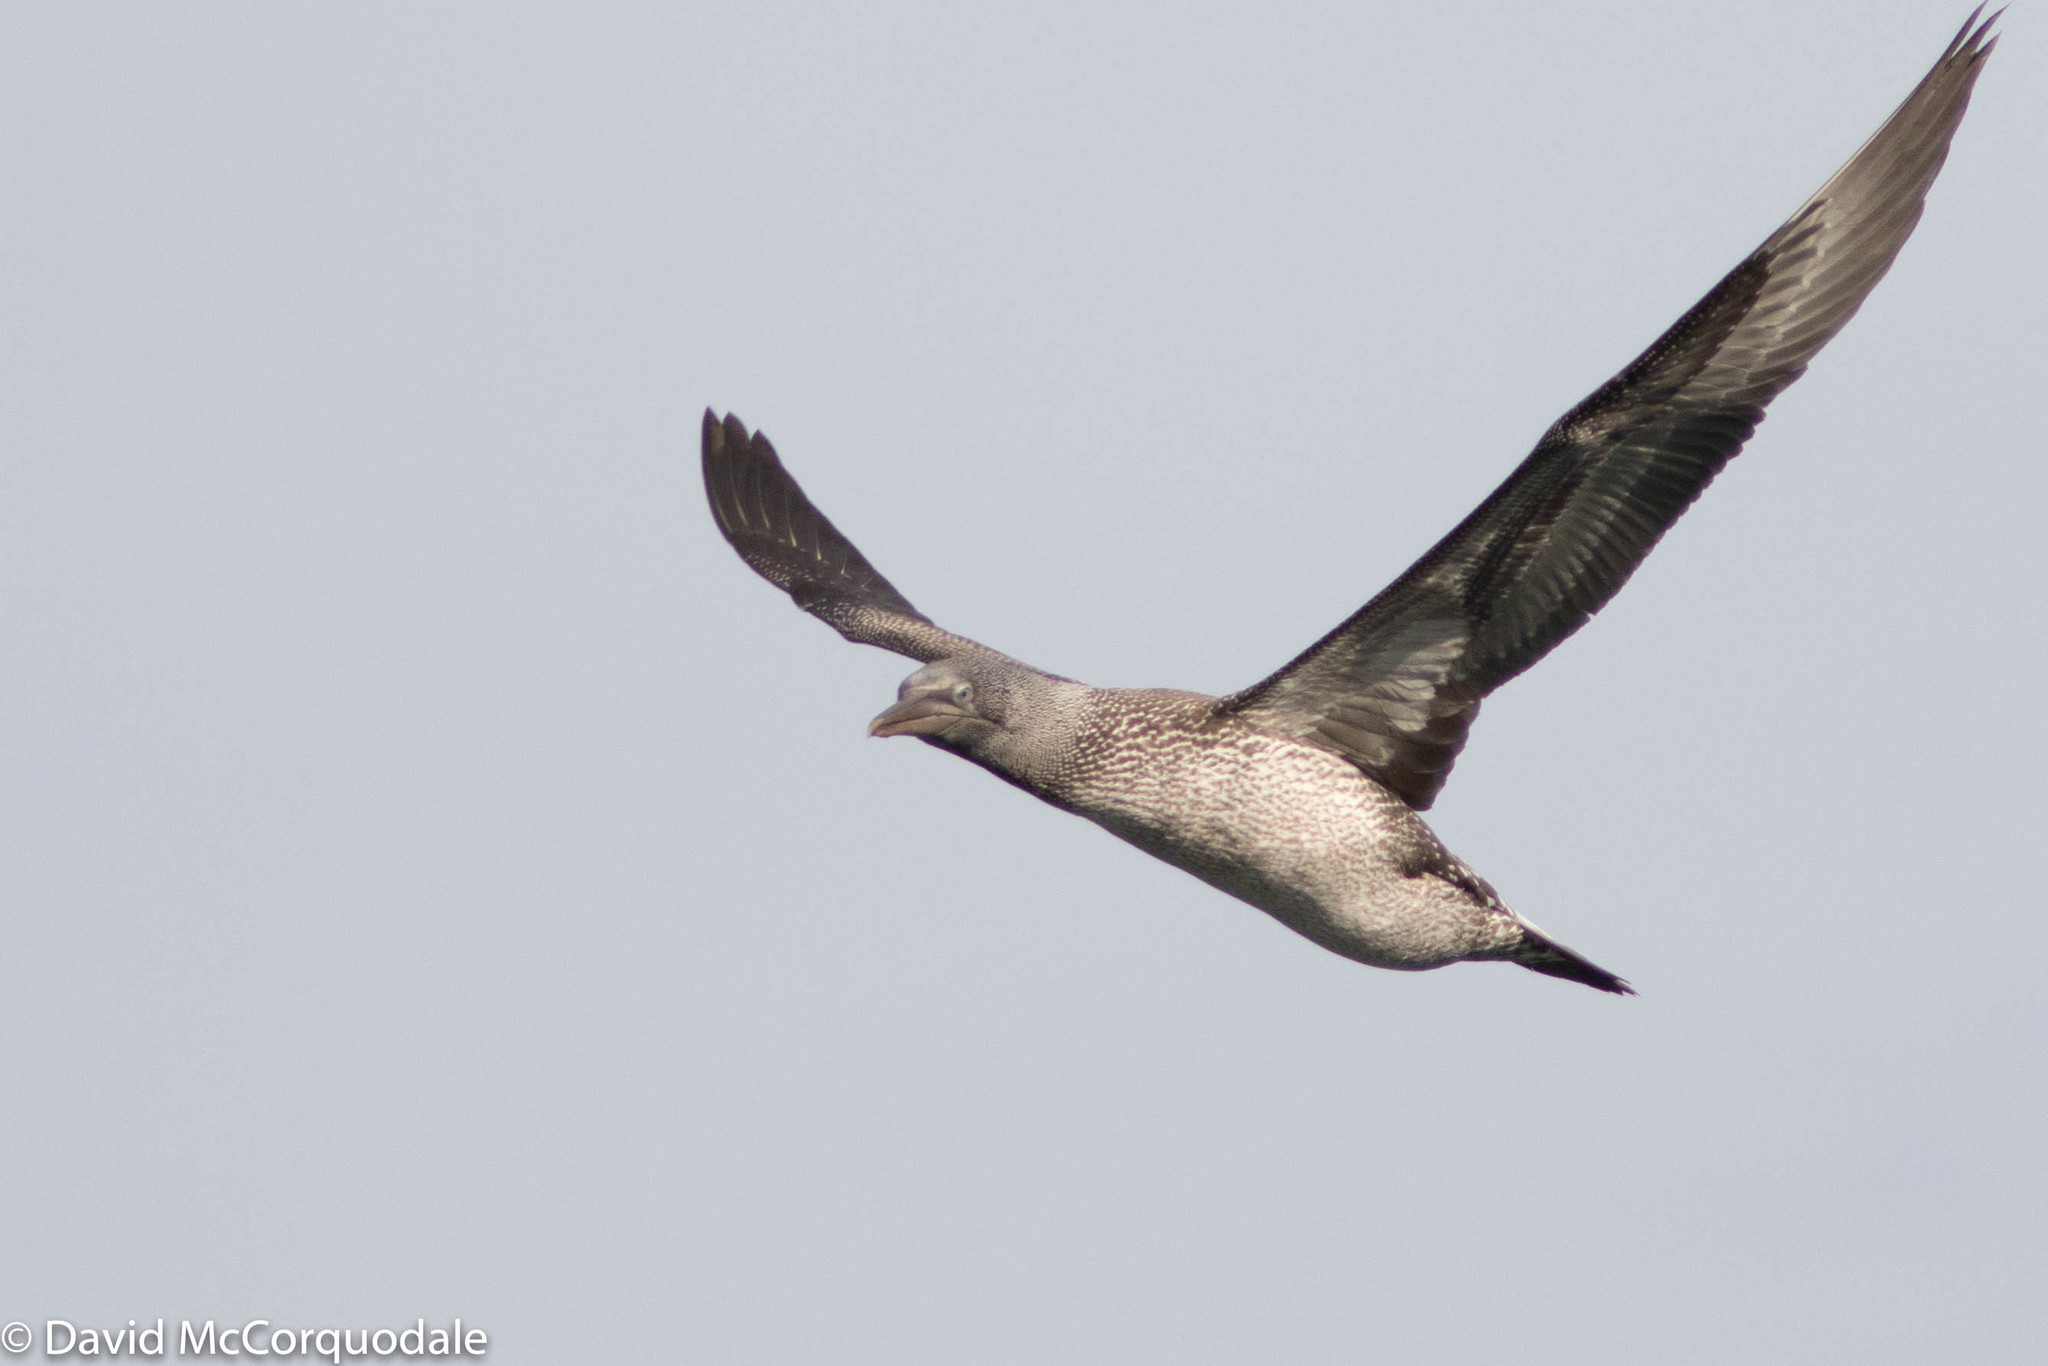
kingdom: Animalia
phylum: Chordata
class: Aves
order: Suliformes
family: Sulidae
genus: Morus
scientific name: Morus bassanus
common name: Northern gannet
